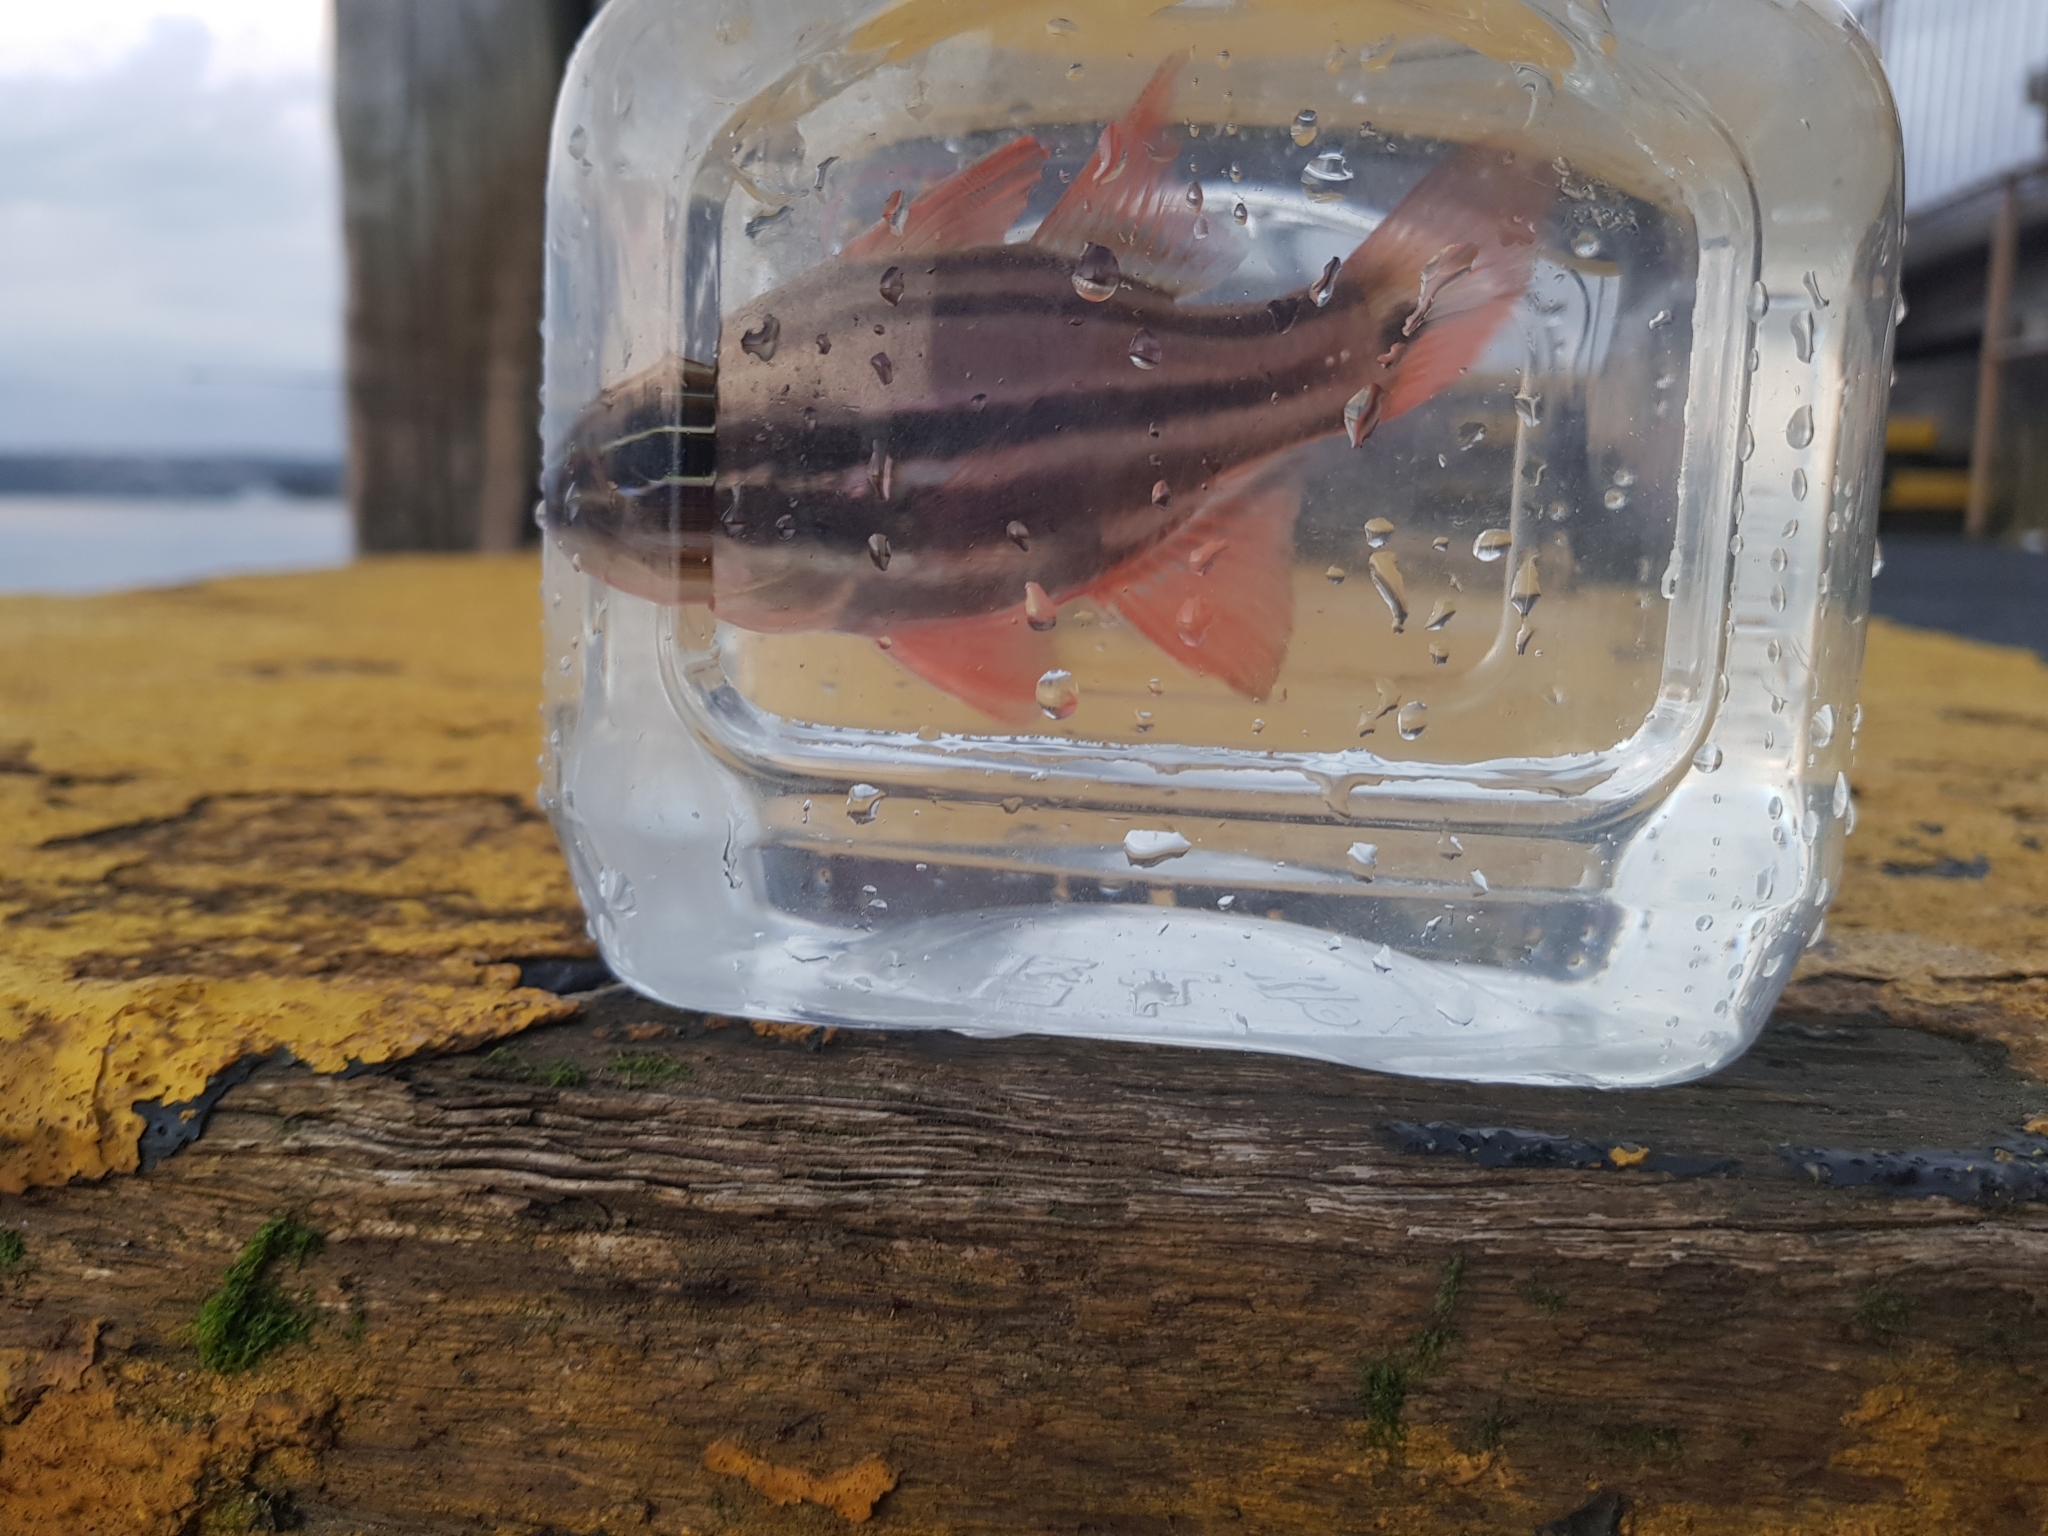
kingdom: Animalia
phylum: Chordata
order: Perciformes
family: Apogonidae
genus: Ostorhinchus
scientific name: Ostorhinchus limenus
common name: Four-banded soldierfish
